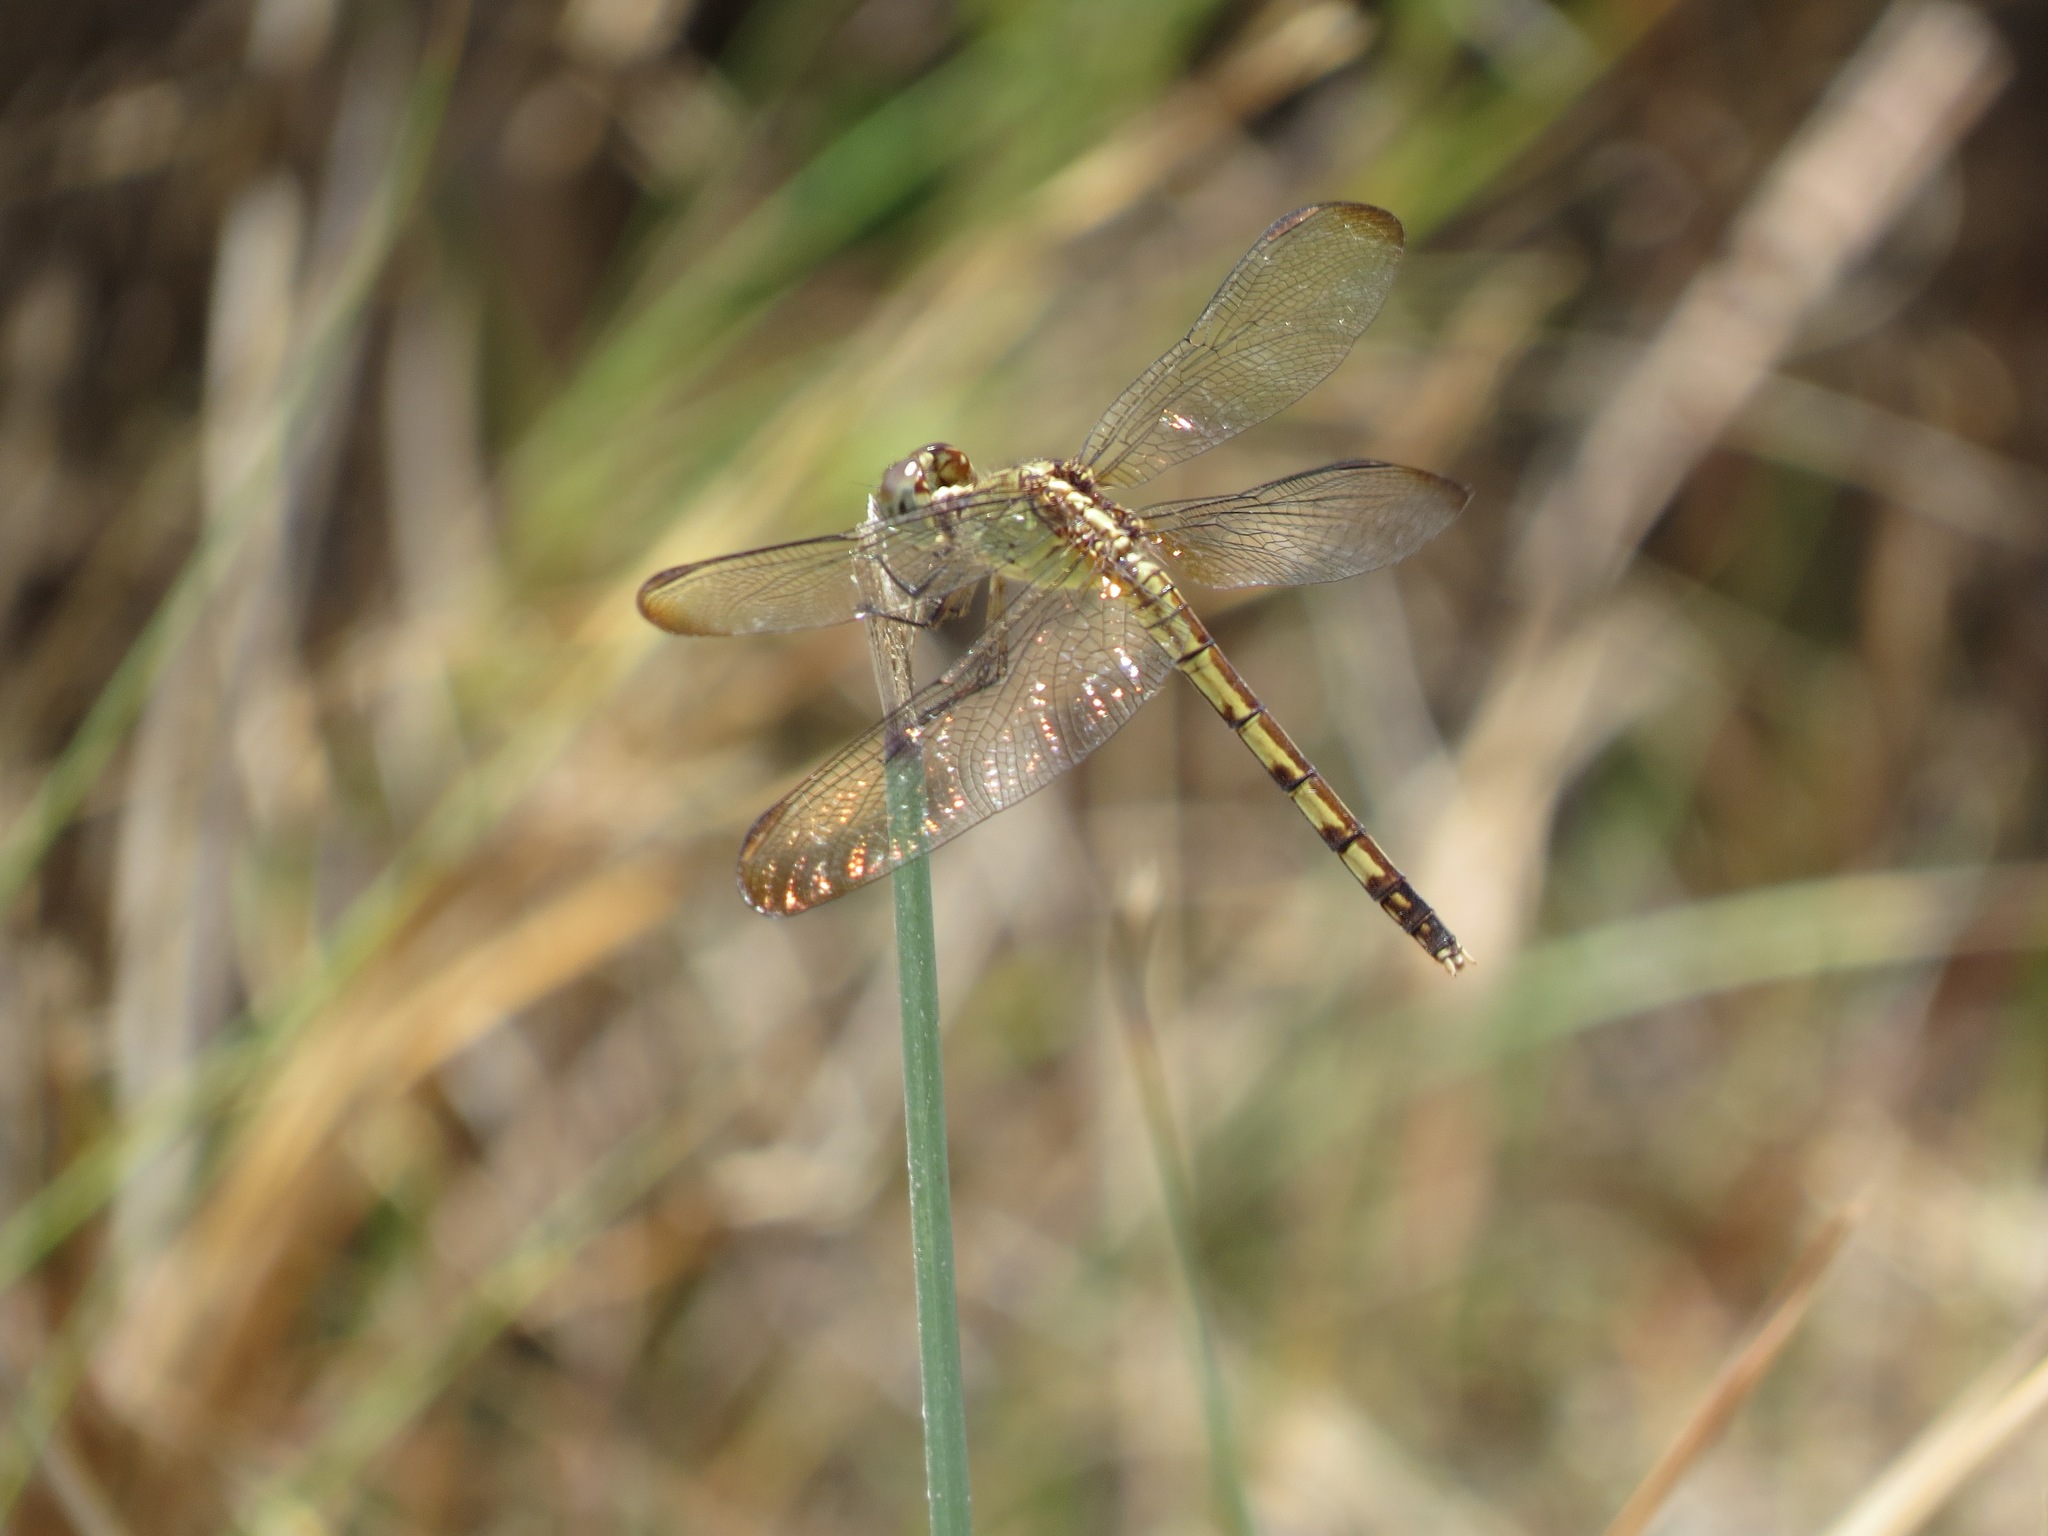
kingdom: Animalia
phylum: Arthropoda
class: Insecta
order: Odonata
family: Libellulidae
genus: Erythrodiplax
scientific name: Erythrodiplax umbrata
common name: Band-winged dragonlet
